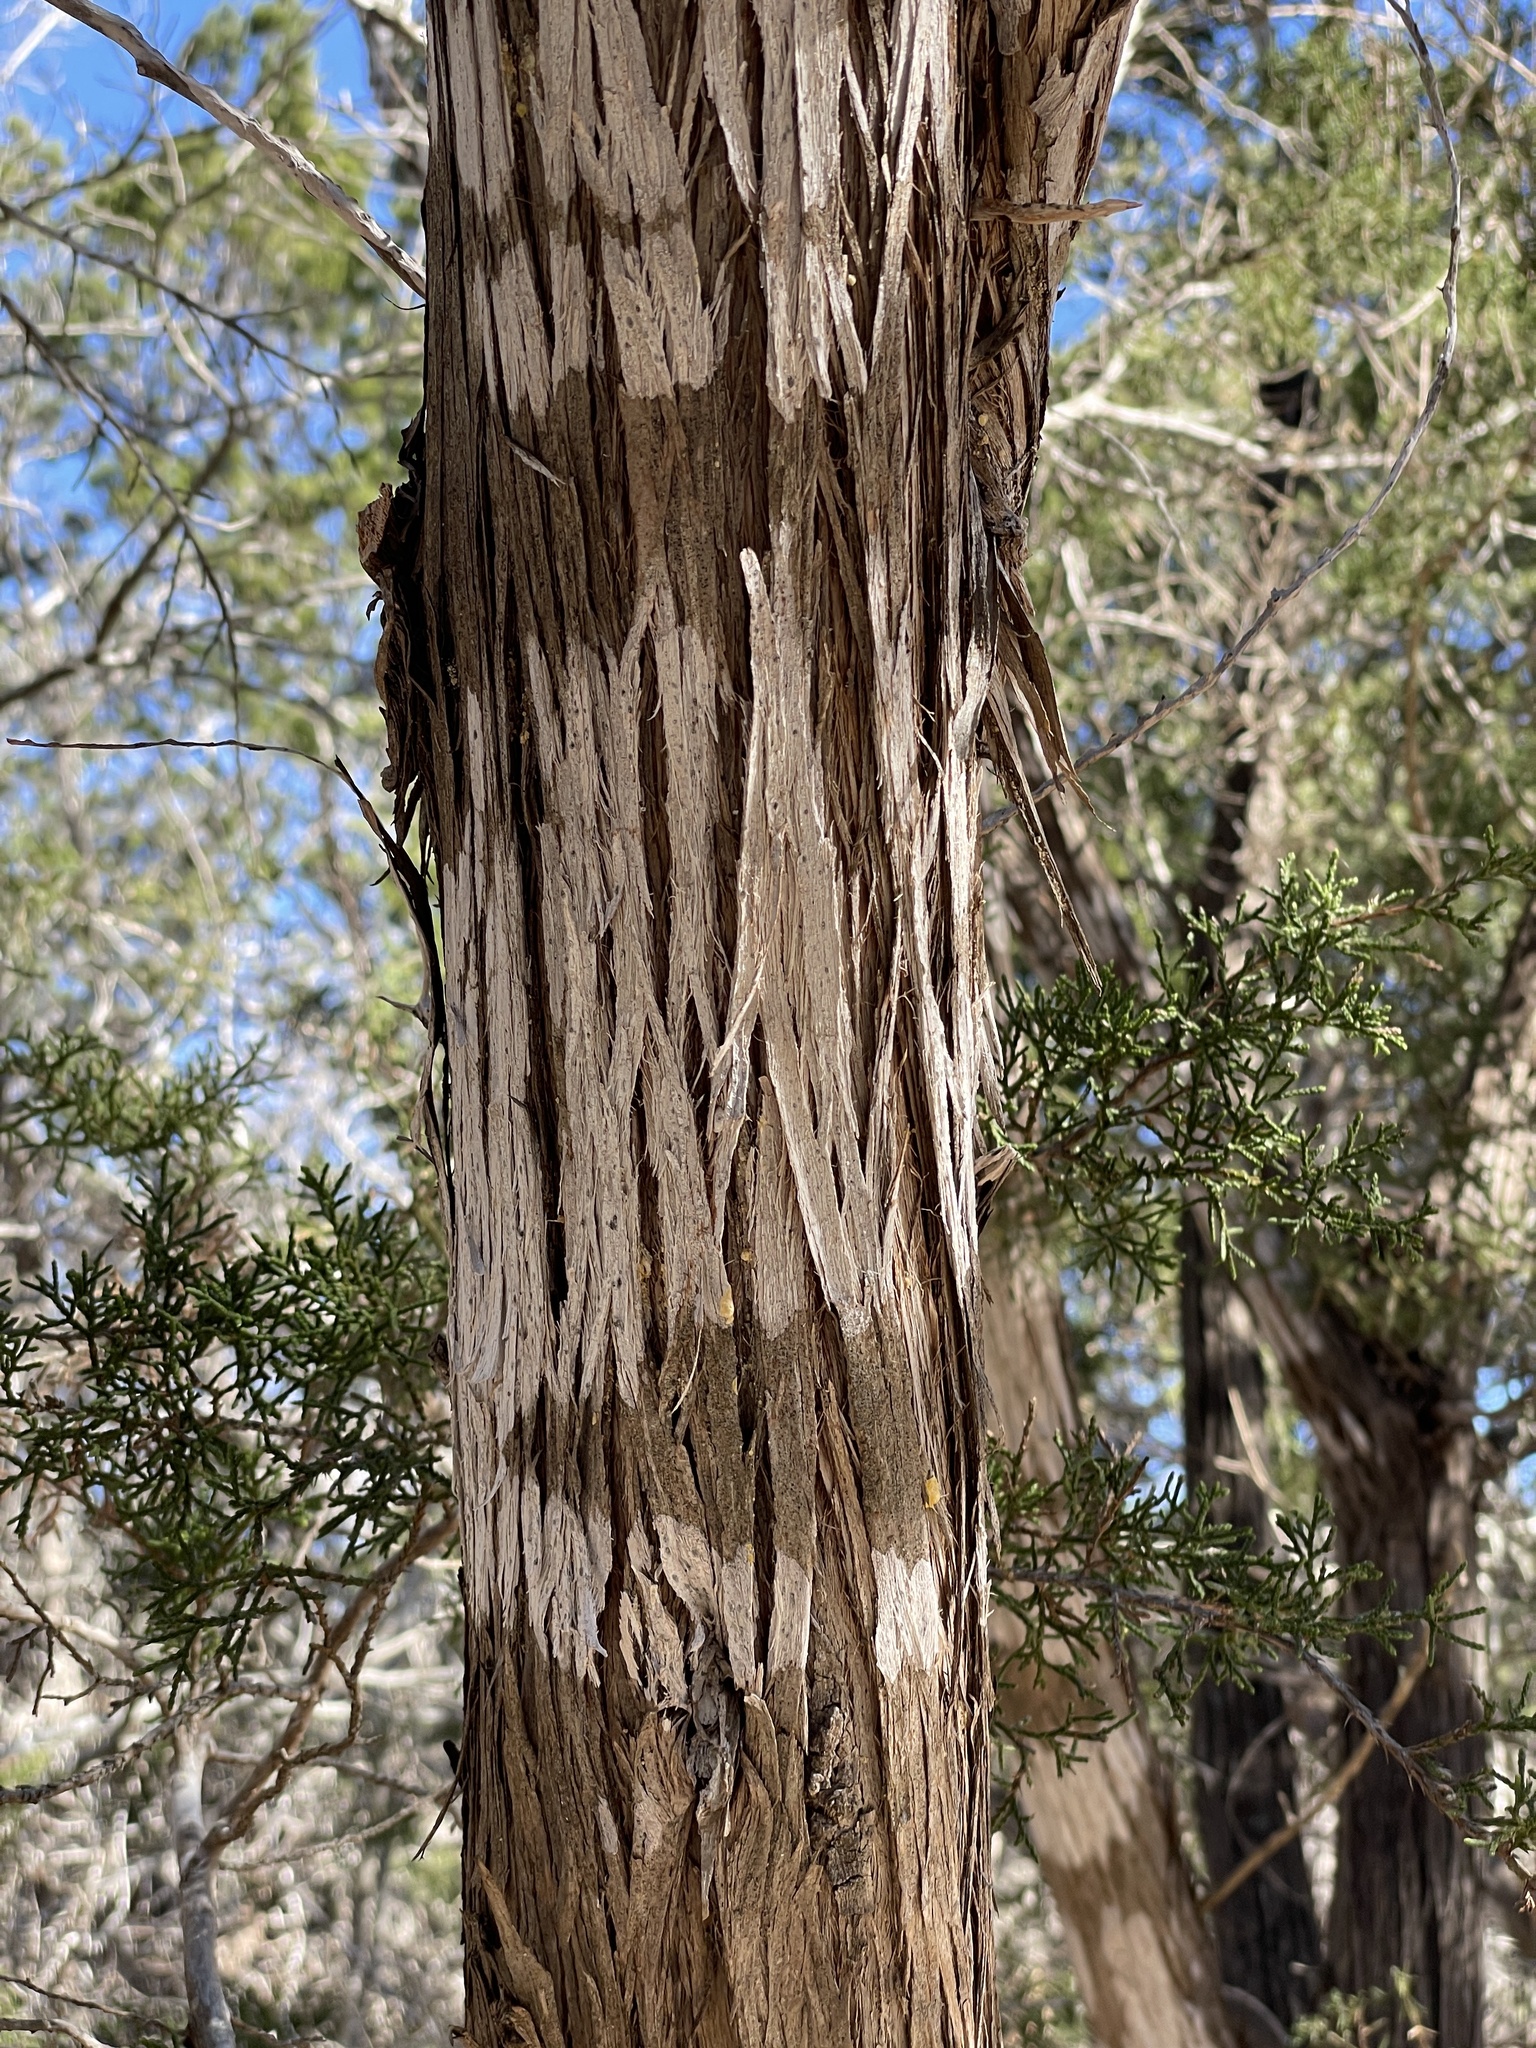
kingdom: Fungi
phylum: Ascomycota
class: Lecanoromycetes
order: Ostropales
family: Stictidaceae
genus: Robergea
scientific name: Robergea
